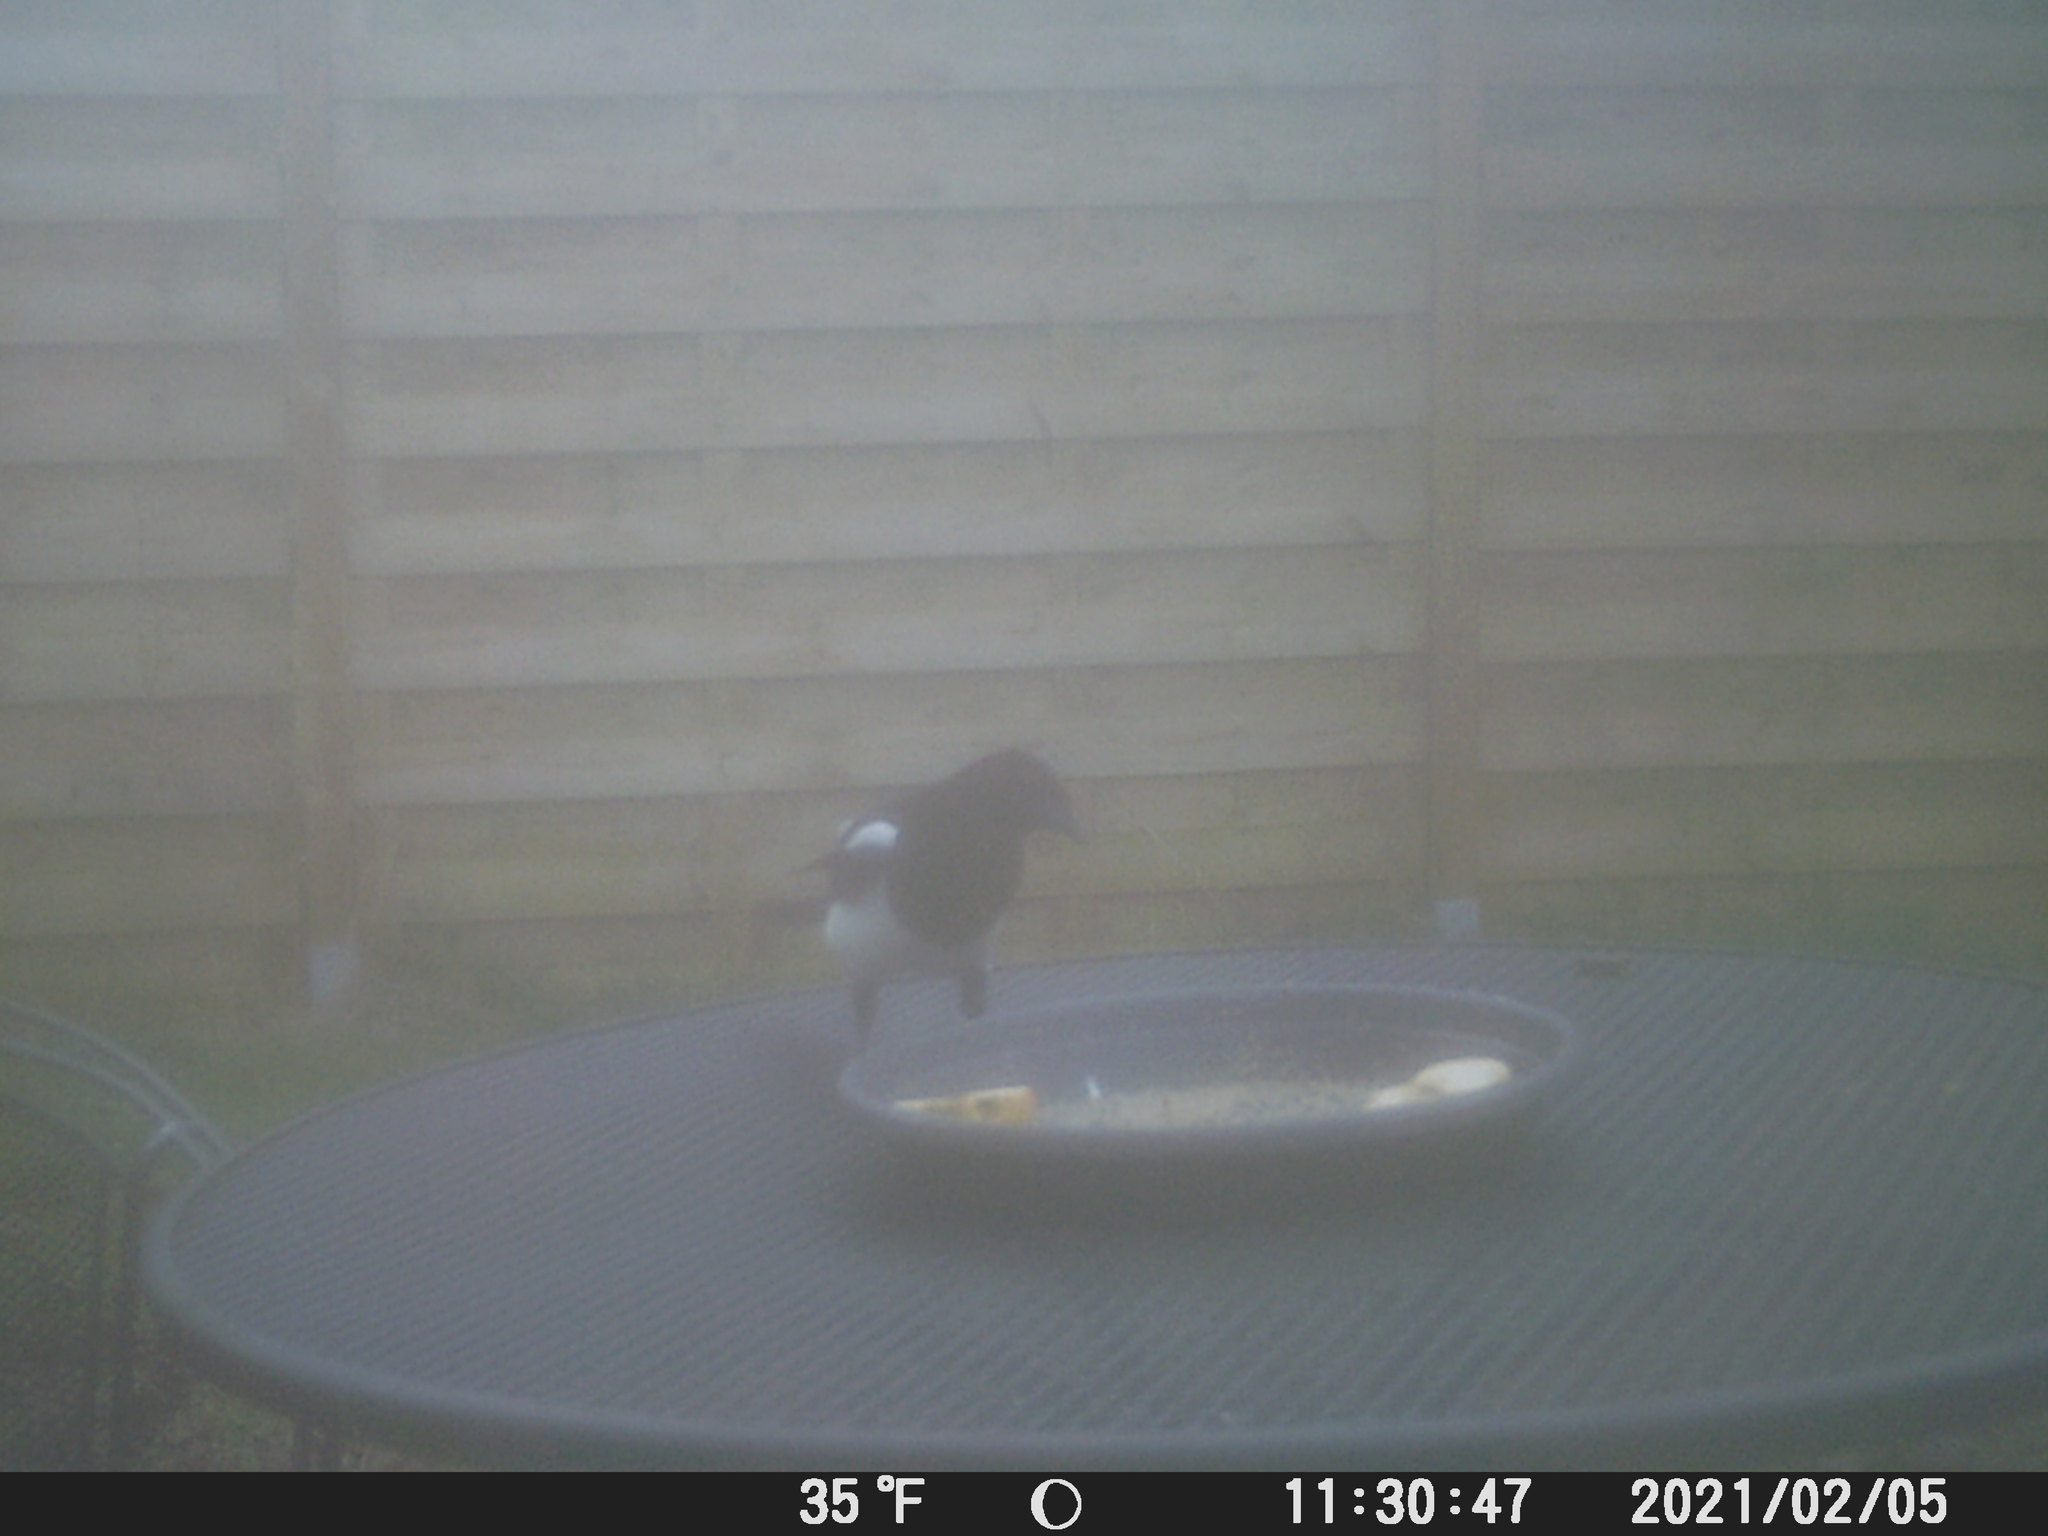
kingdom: Animalia
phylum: Chordata
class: Aves
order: Passeriformes
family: Corvidae
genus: Pica
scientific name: Pica pica
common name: Eurasian magpie
